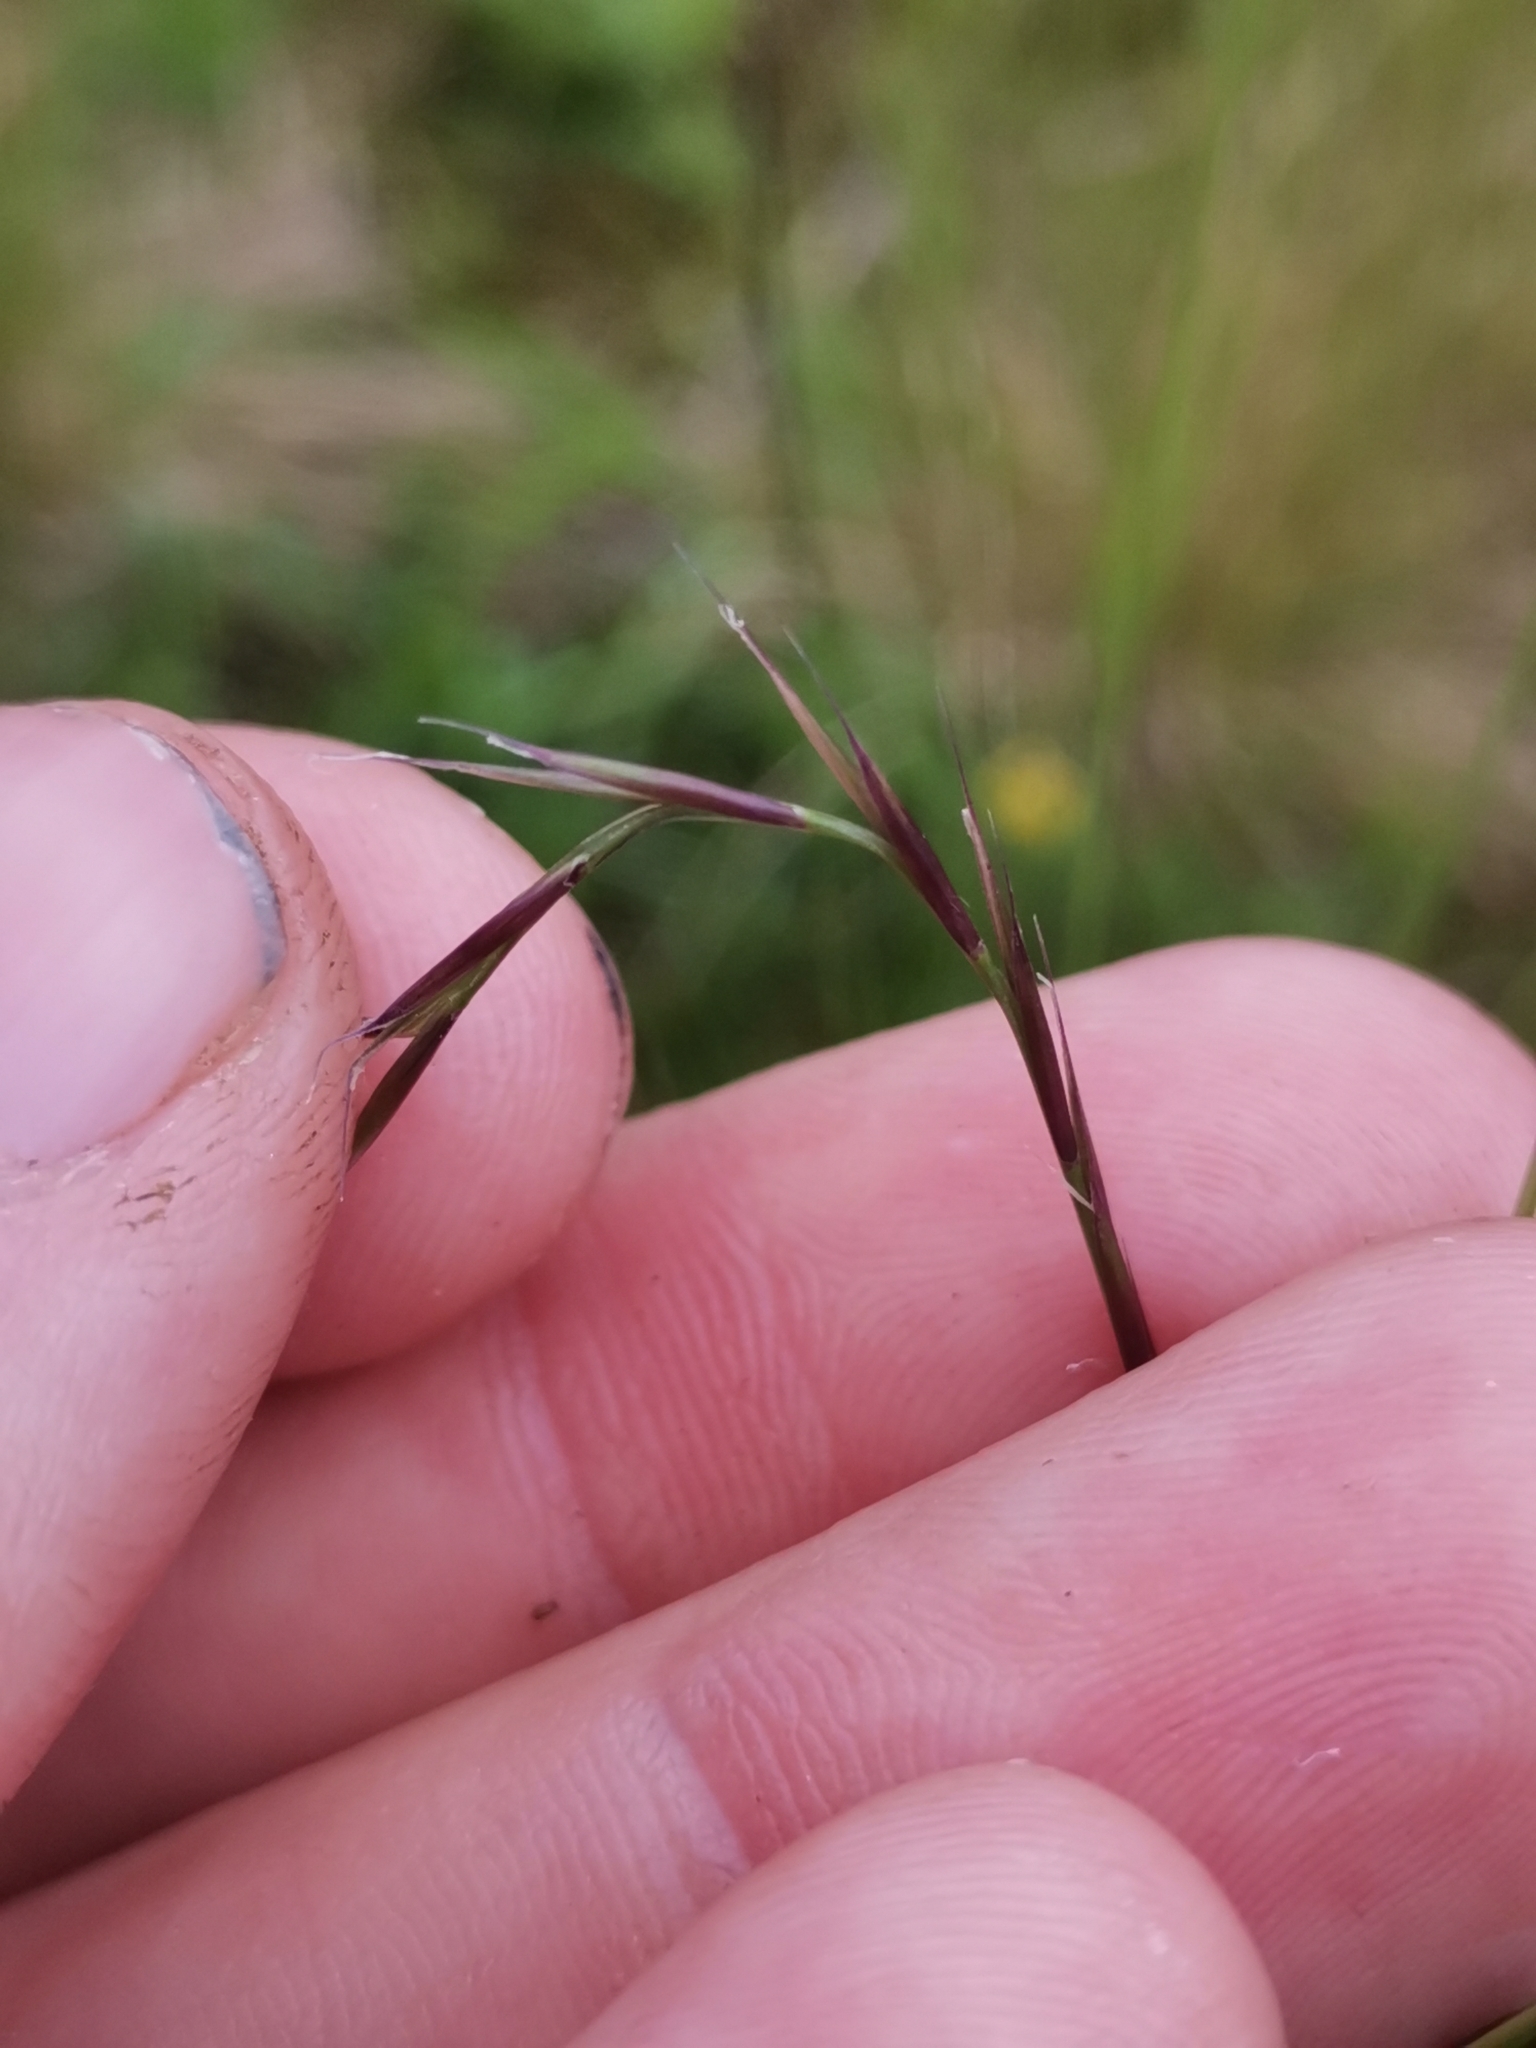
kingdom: Plantae
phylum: Tracheophyta
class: Liliopsida
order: Poales
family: Poaceae
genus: Nardus
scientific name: Nardus stricta
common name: Mat-grass
